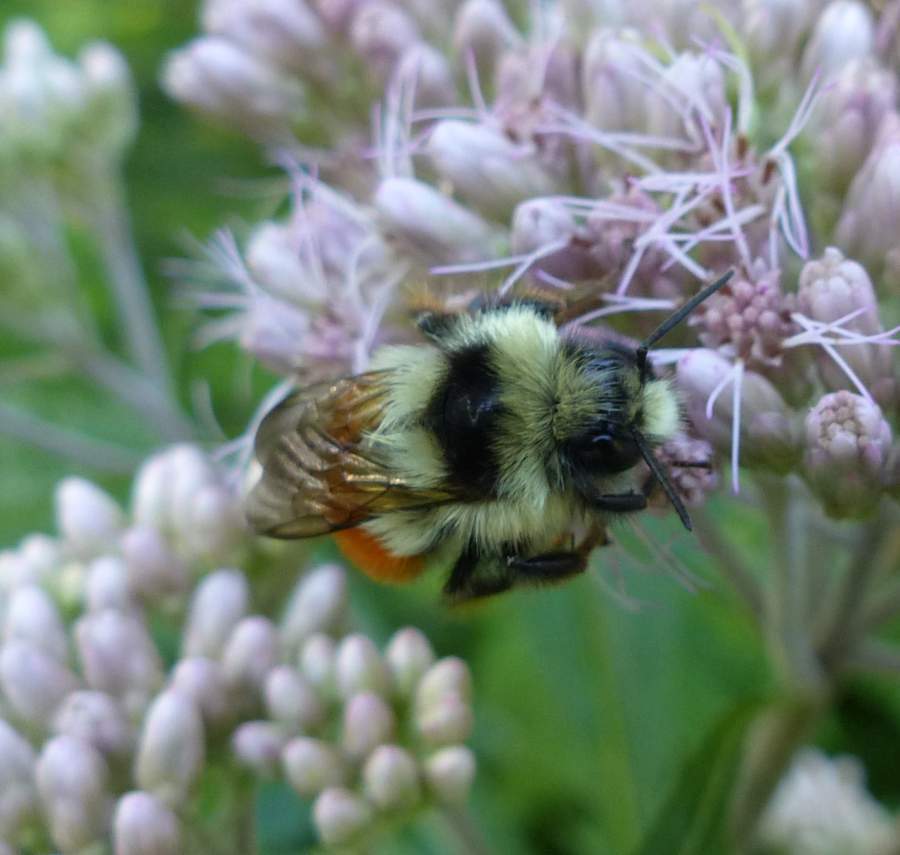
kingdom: Animalia
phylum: Arthropoda
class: Insecta
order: Hymenoptera
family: Apidae
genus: Bombus
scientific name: Bombus ternarius
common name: Tri-colored bumble bee
